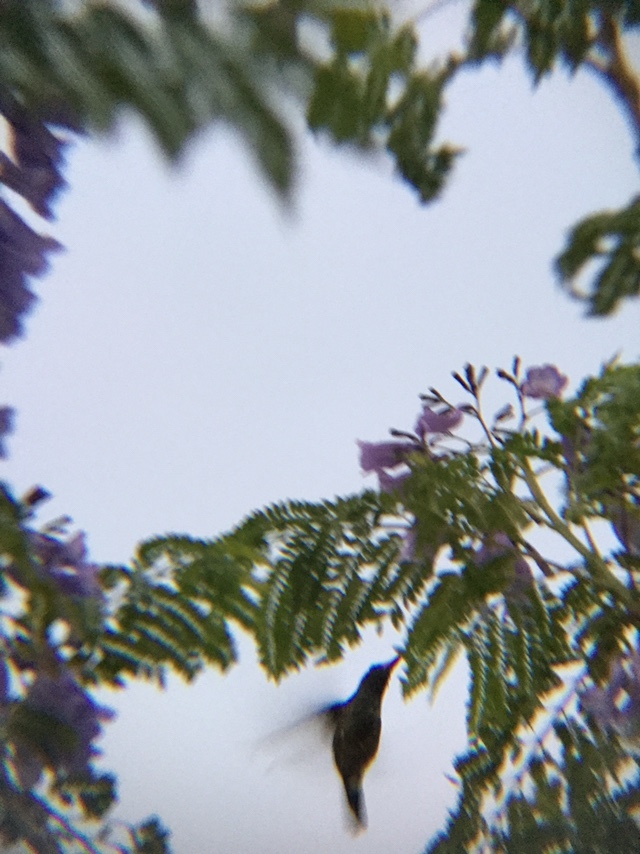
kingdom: Animalia
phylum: Chordata
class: Aves
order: Apodiformes
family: Trochilidae
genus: Cynanthus
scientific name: Cynanthus latirostris
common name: Broad-billed hummingbird
